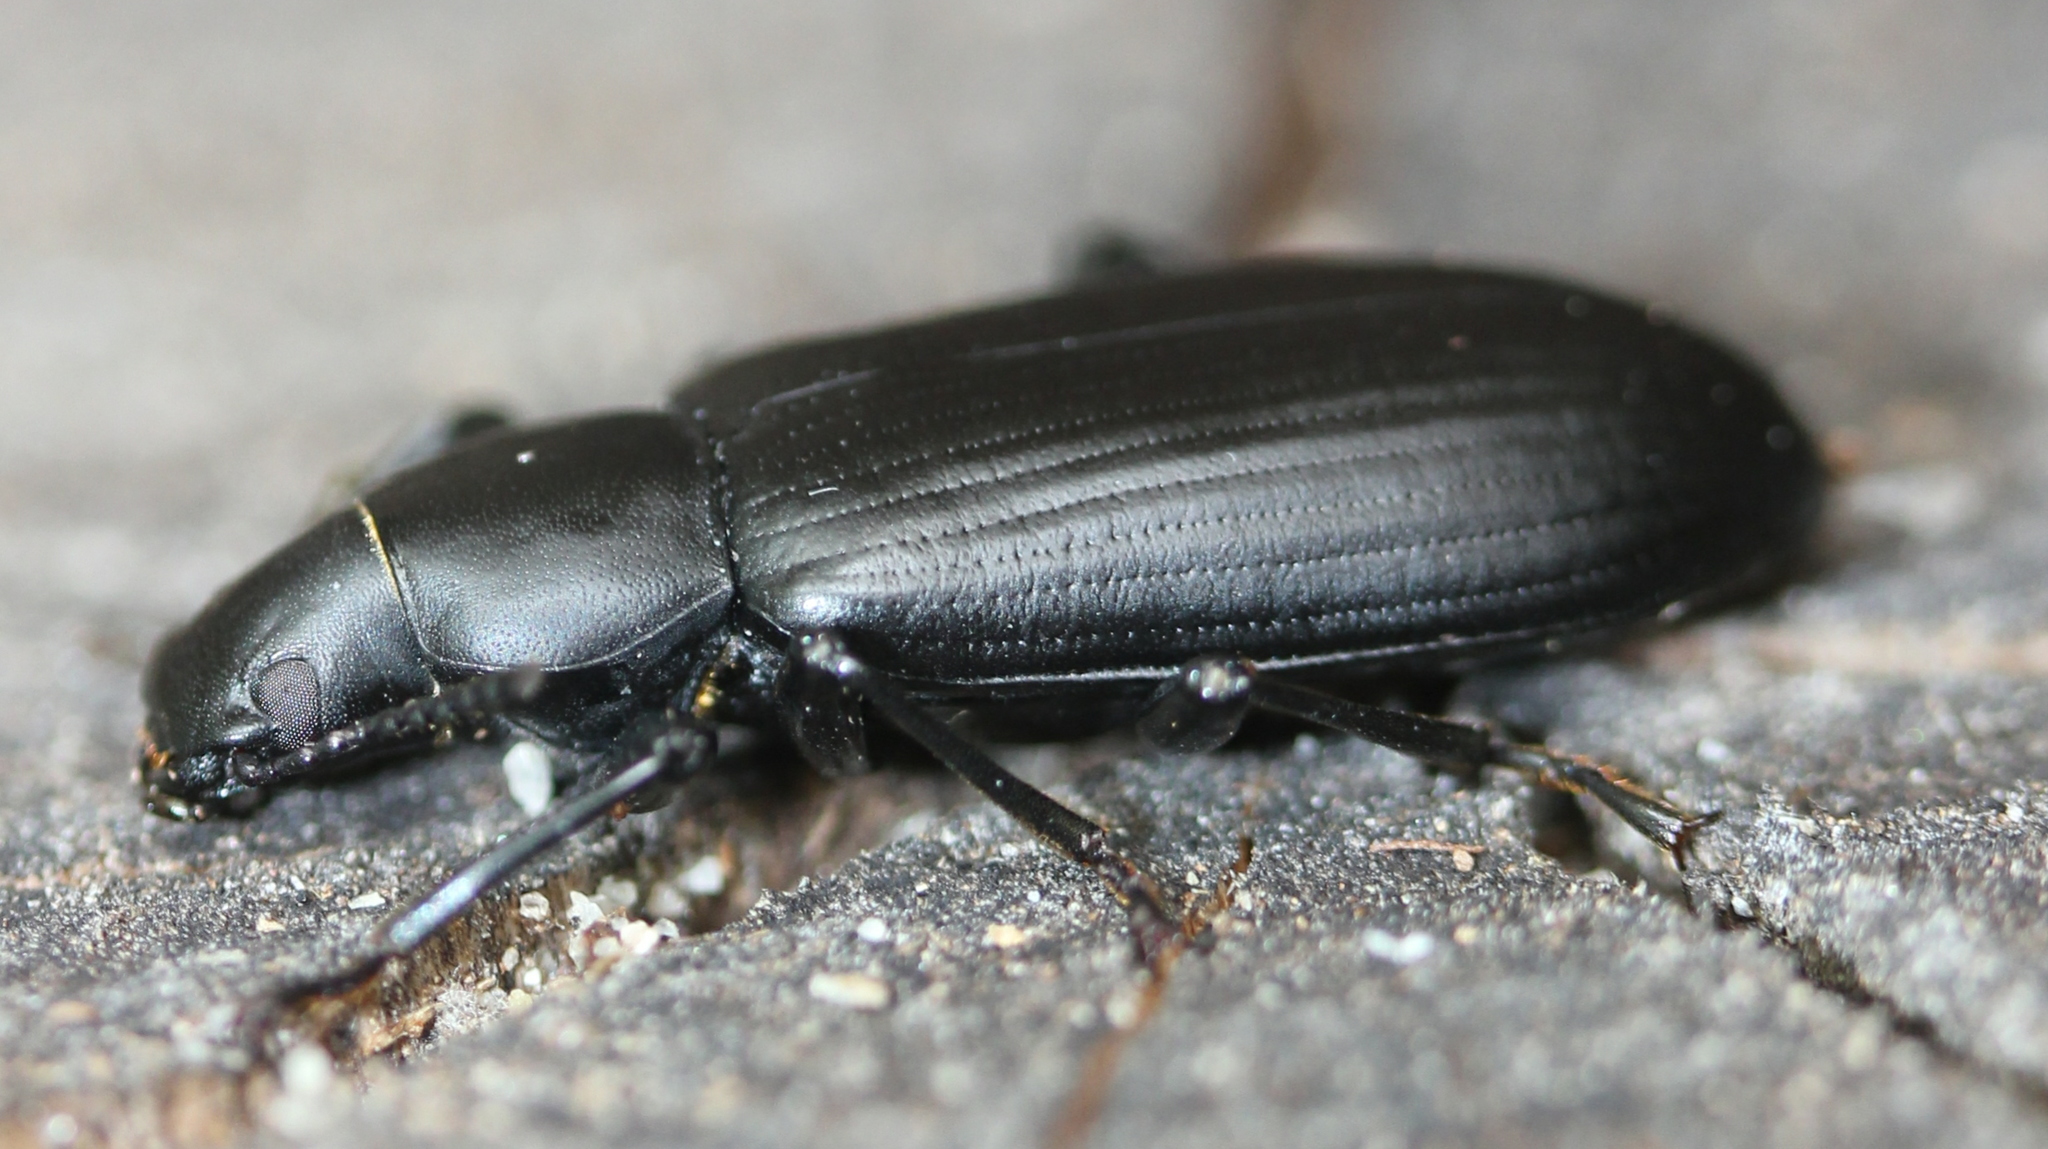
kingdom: Animalia
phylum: Arthropoda
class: Insecta
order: Coleoptera
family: Tenebrionidae
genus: Alobates
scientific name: Alobates pensylvanicus
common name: False mealworm beetle
